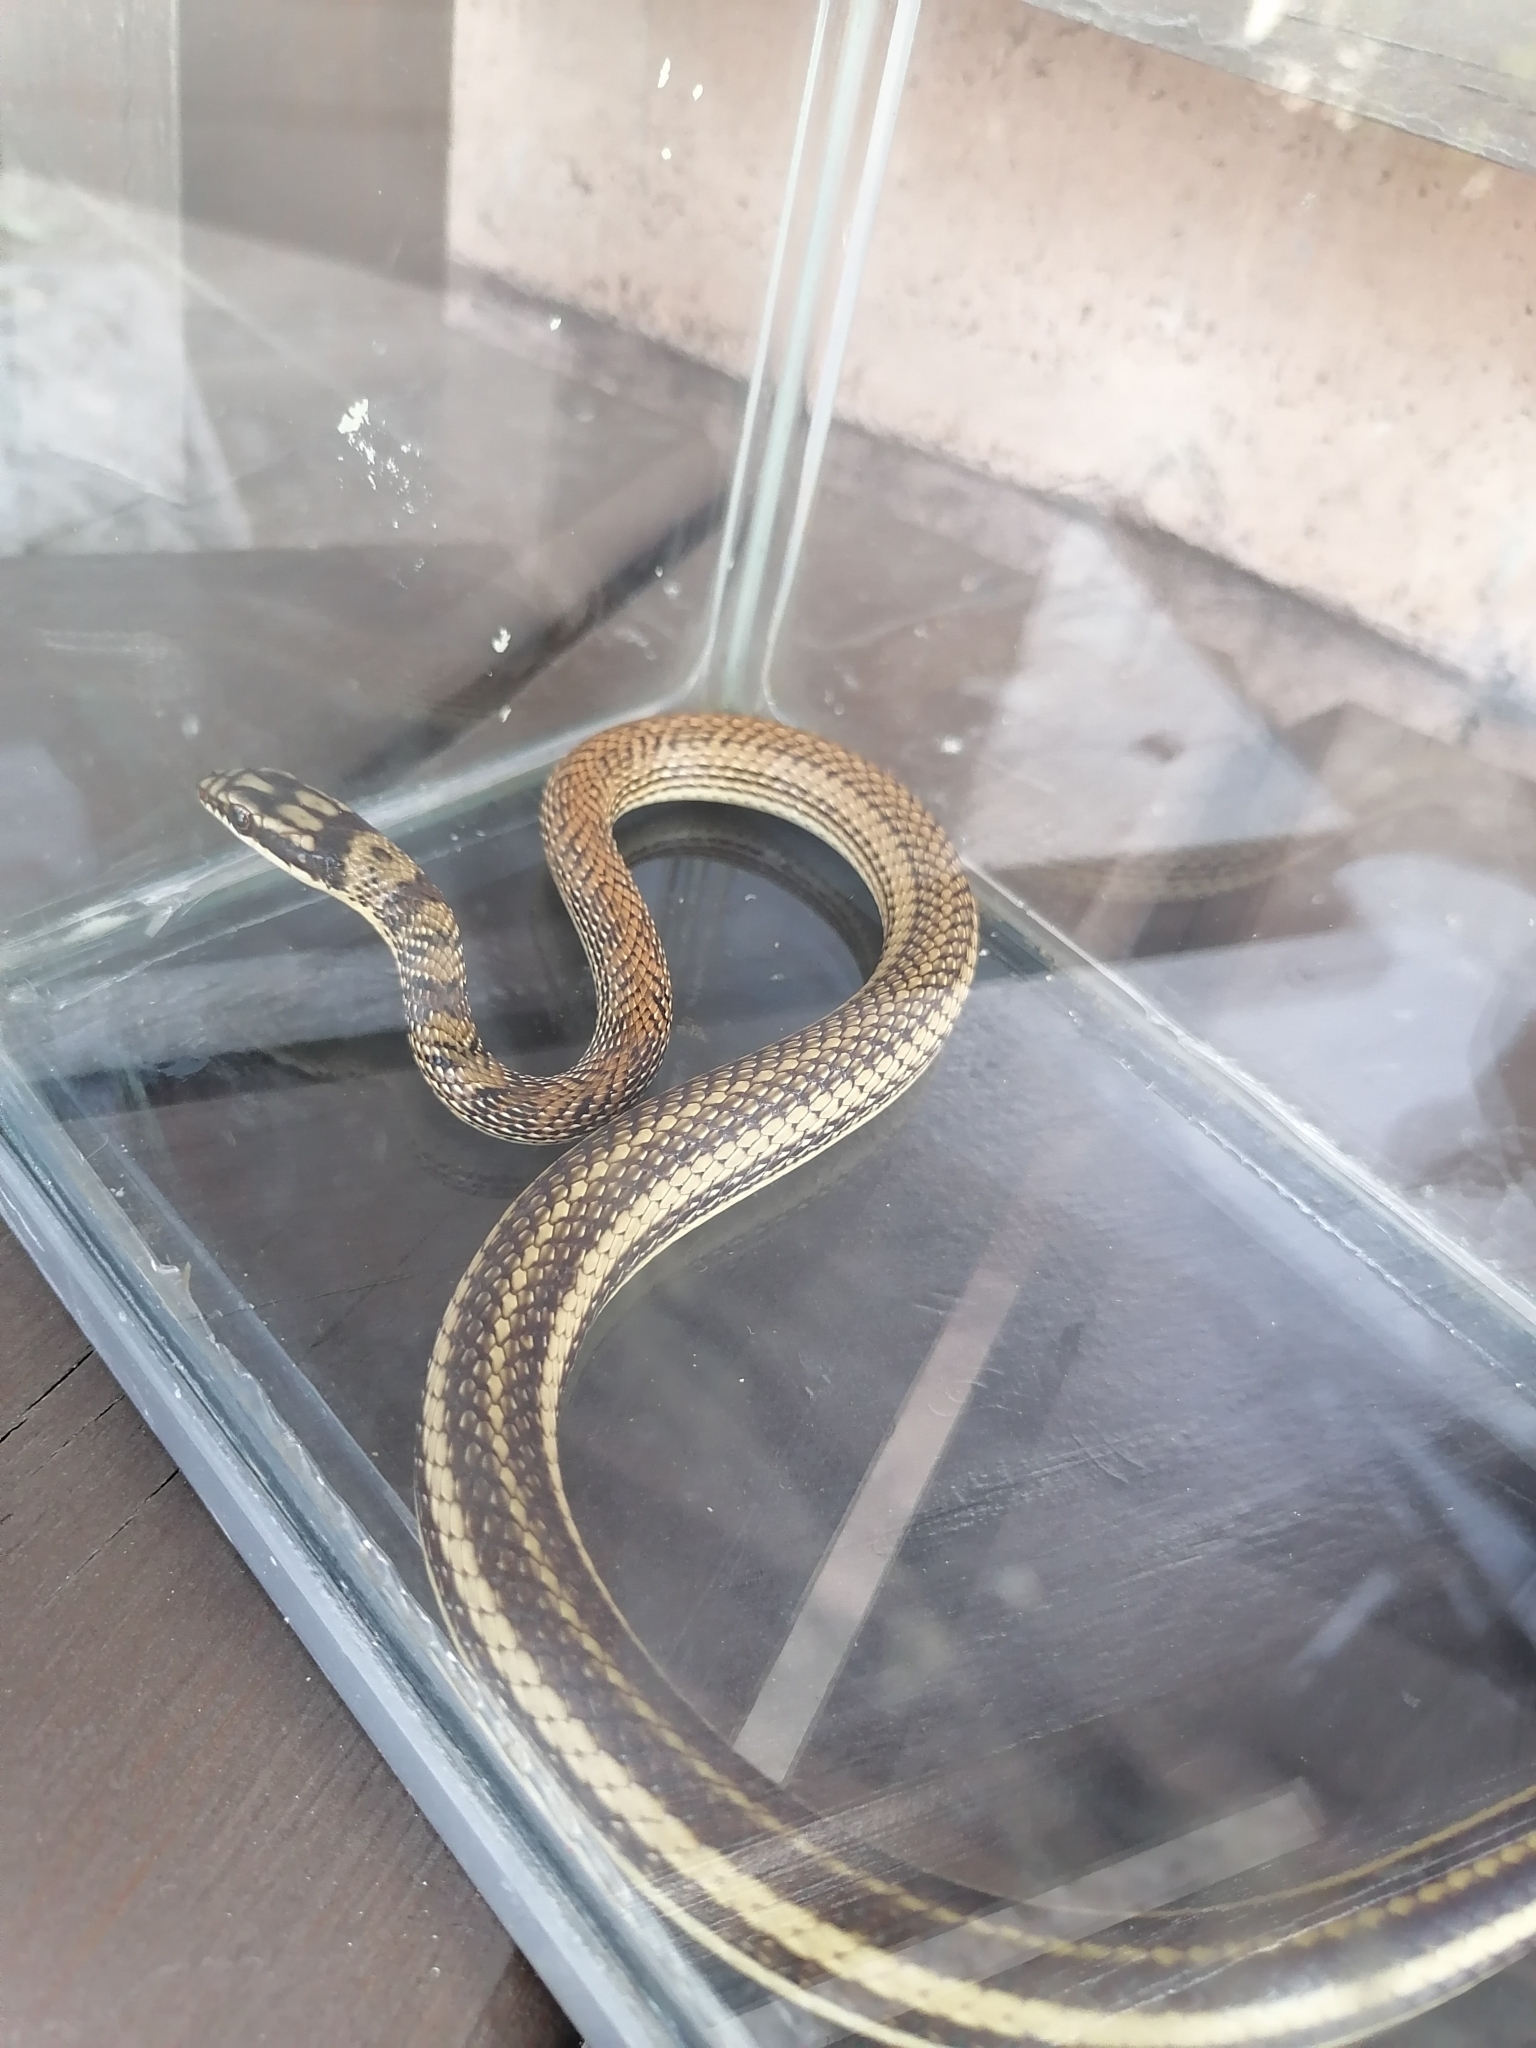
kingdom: Animalia
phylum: Chordata
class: Squamata
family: Colubridae
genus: Salvadora
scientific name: Salvadora mexicana
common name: Mexican patchnose snake
